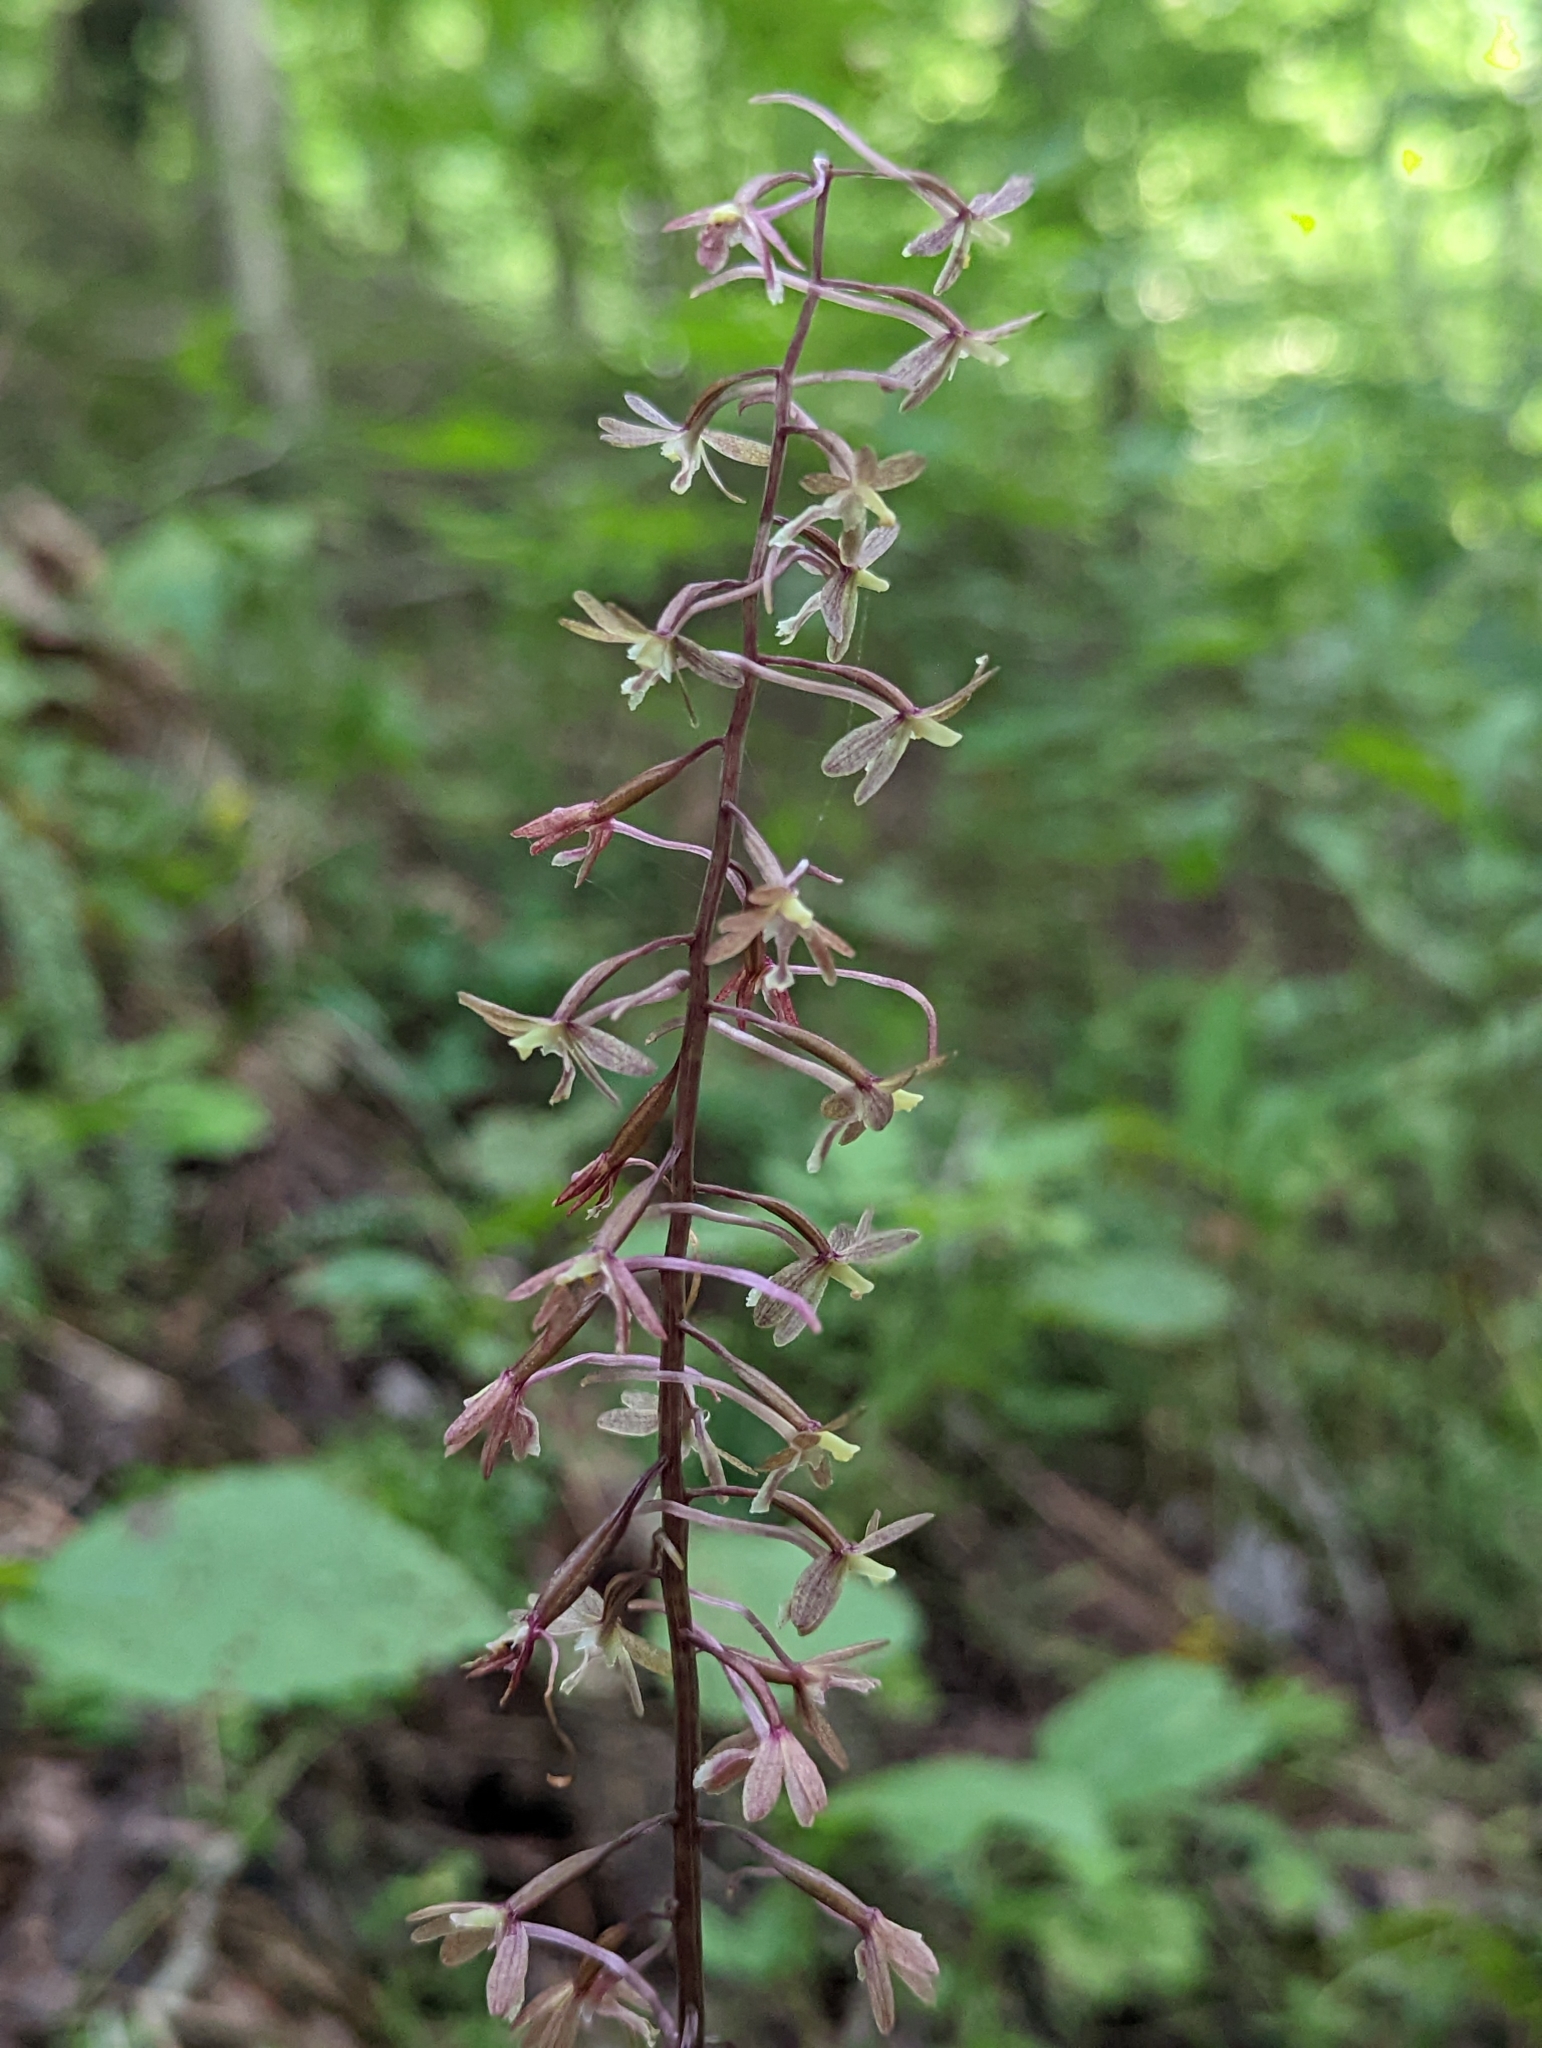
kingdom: Plantae
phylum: Tracheophyta
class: Liliopsida
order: Asparagales
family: Orchidaceae
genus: Tipularia
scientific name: Tipularia discolor
